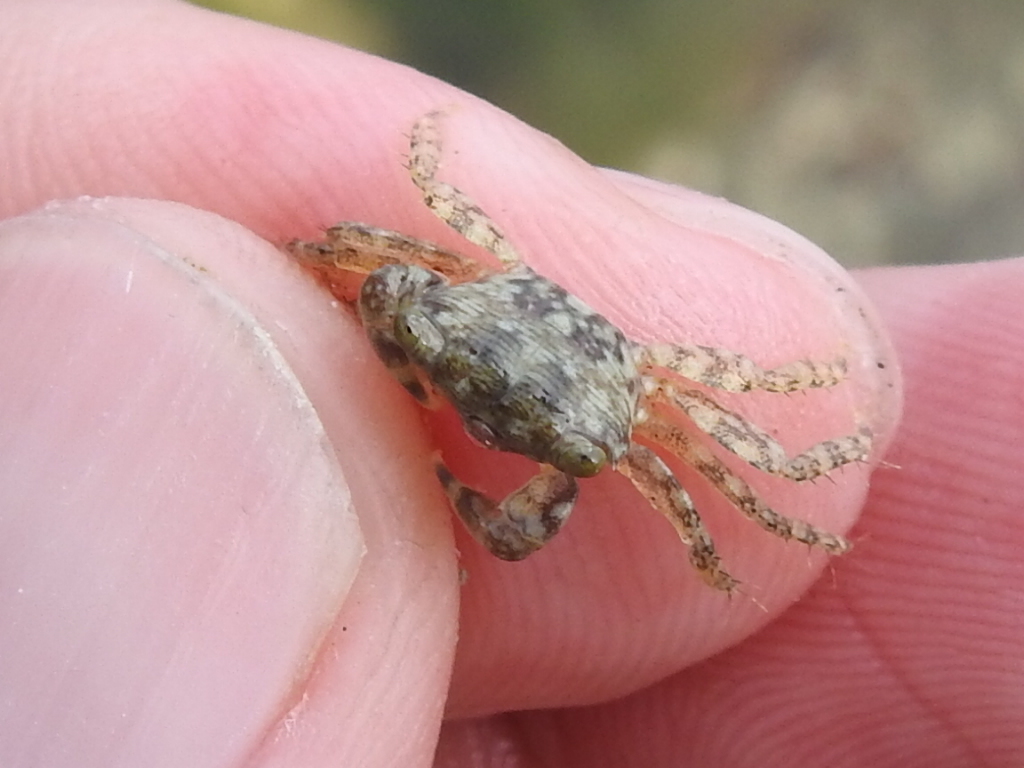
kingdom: Animalia
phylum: Arthropoda
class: Malacostraca
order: Decapoda
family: Grapsidae
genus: Pachygrapsus
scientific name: Pachygrapsus transversus
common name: Mottled shore crab
